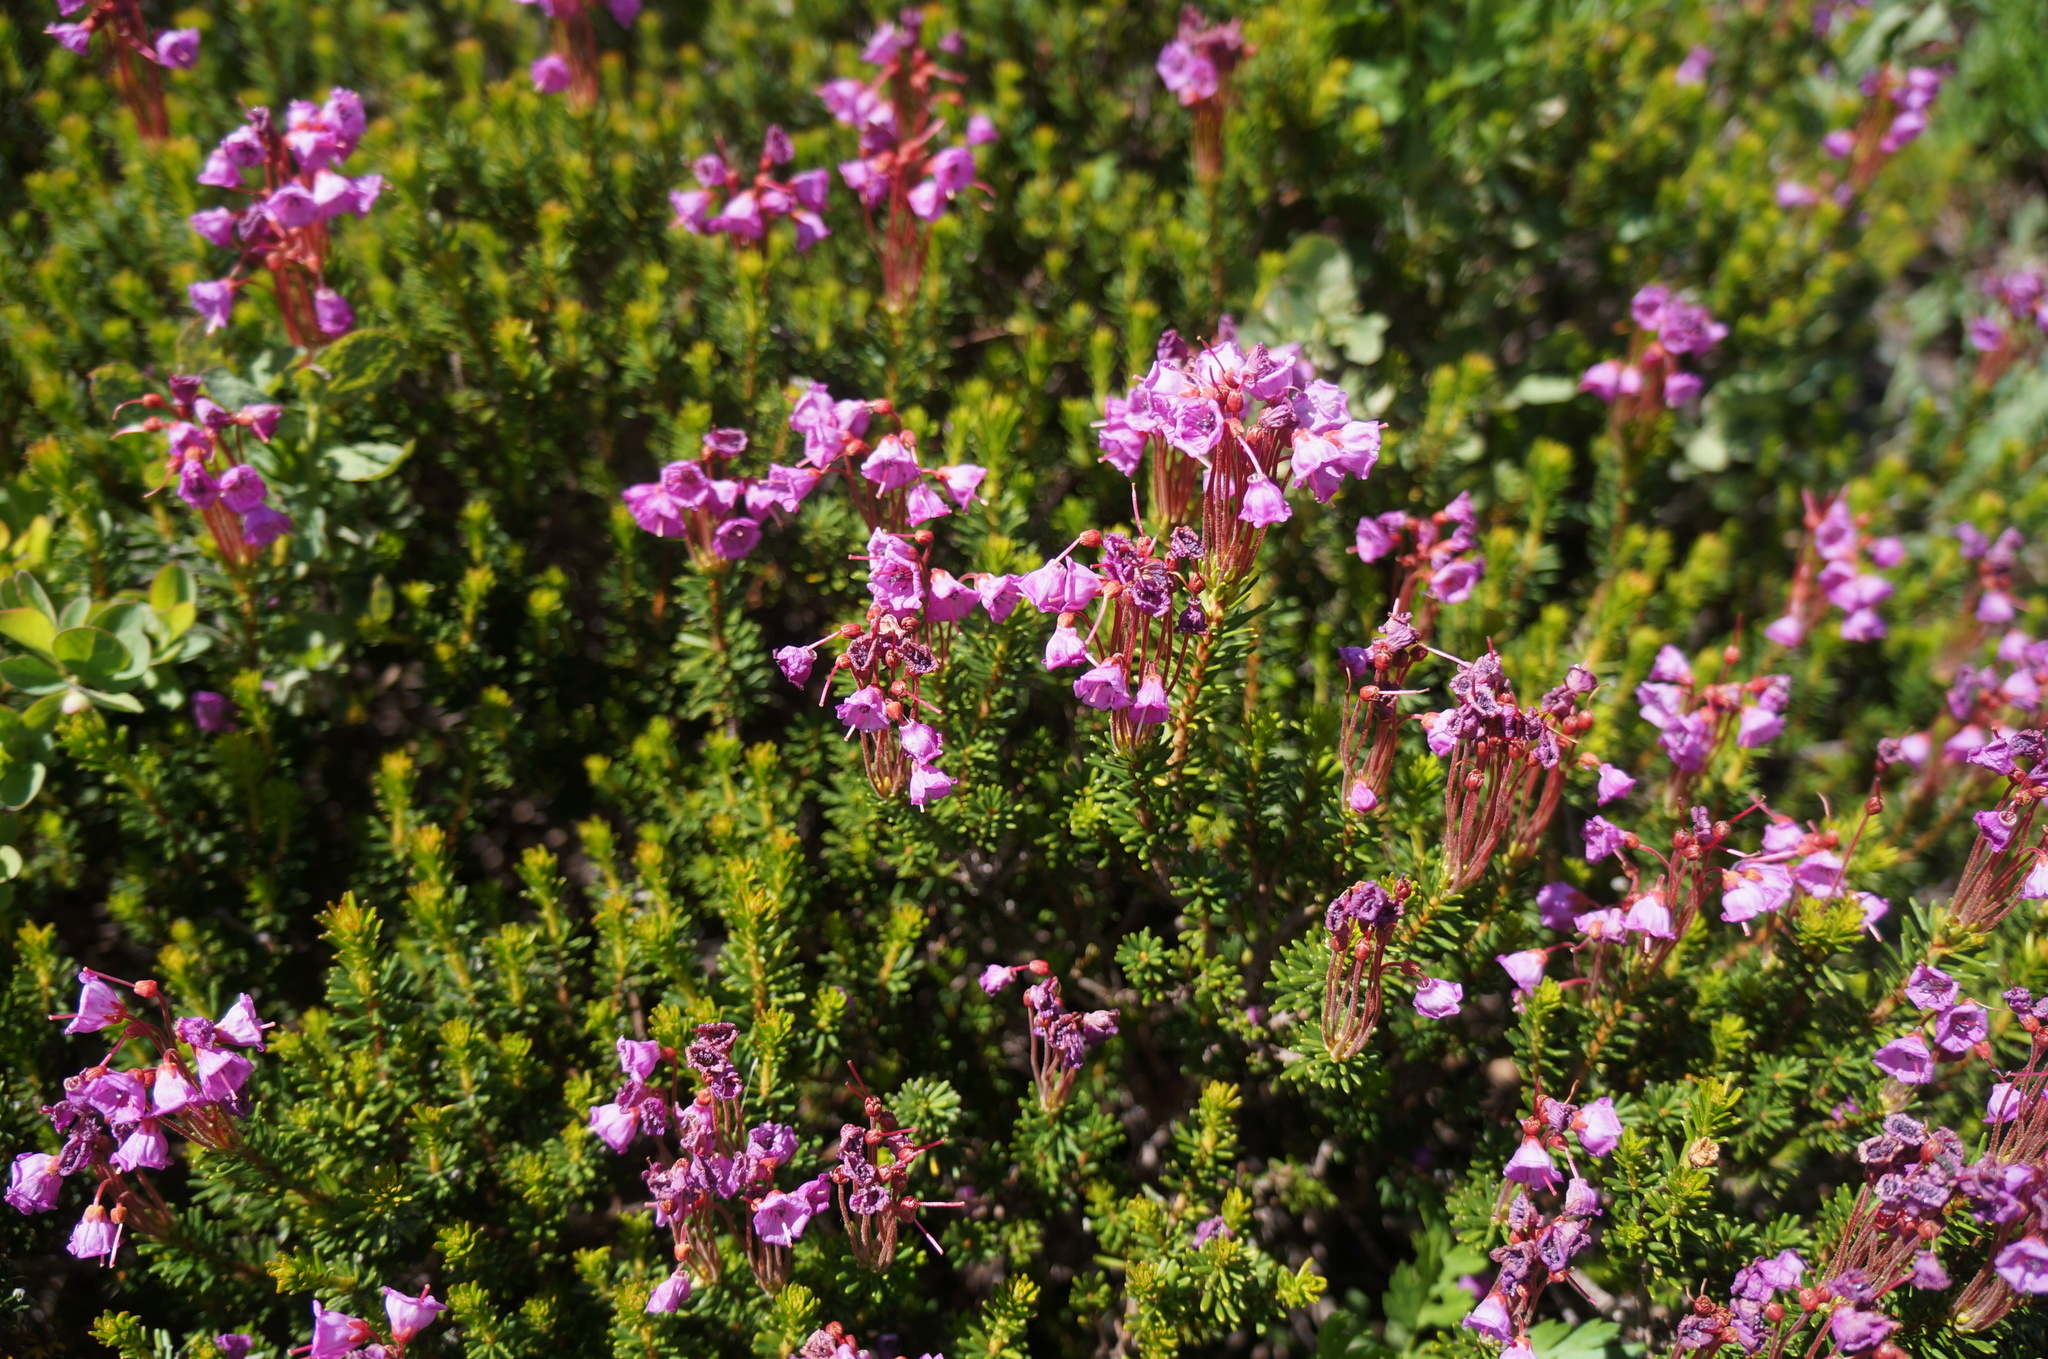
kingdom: Plantae
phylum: Tracheophyta
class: Magnoliopsida
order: Ericales
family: Ericaceae
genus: Phyllodoce
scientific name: Phyllodoce empetriformis
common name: Pink mountain heather
